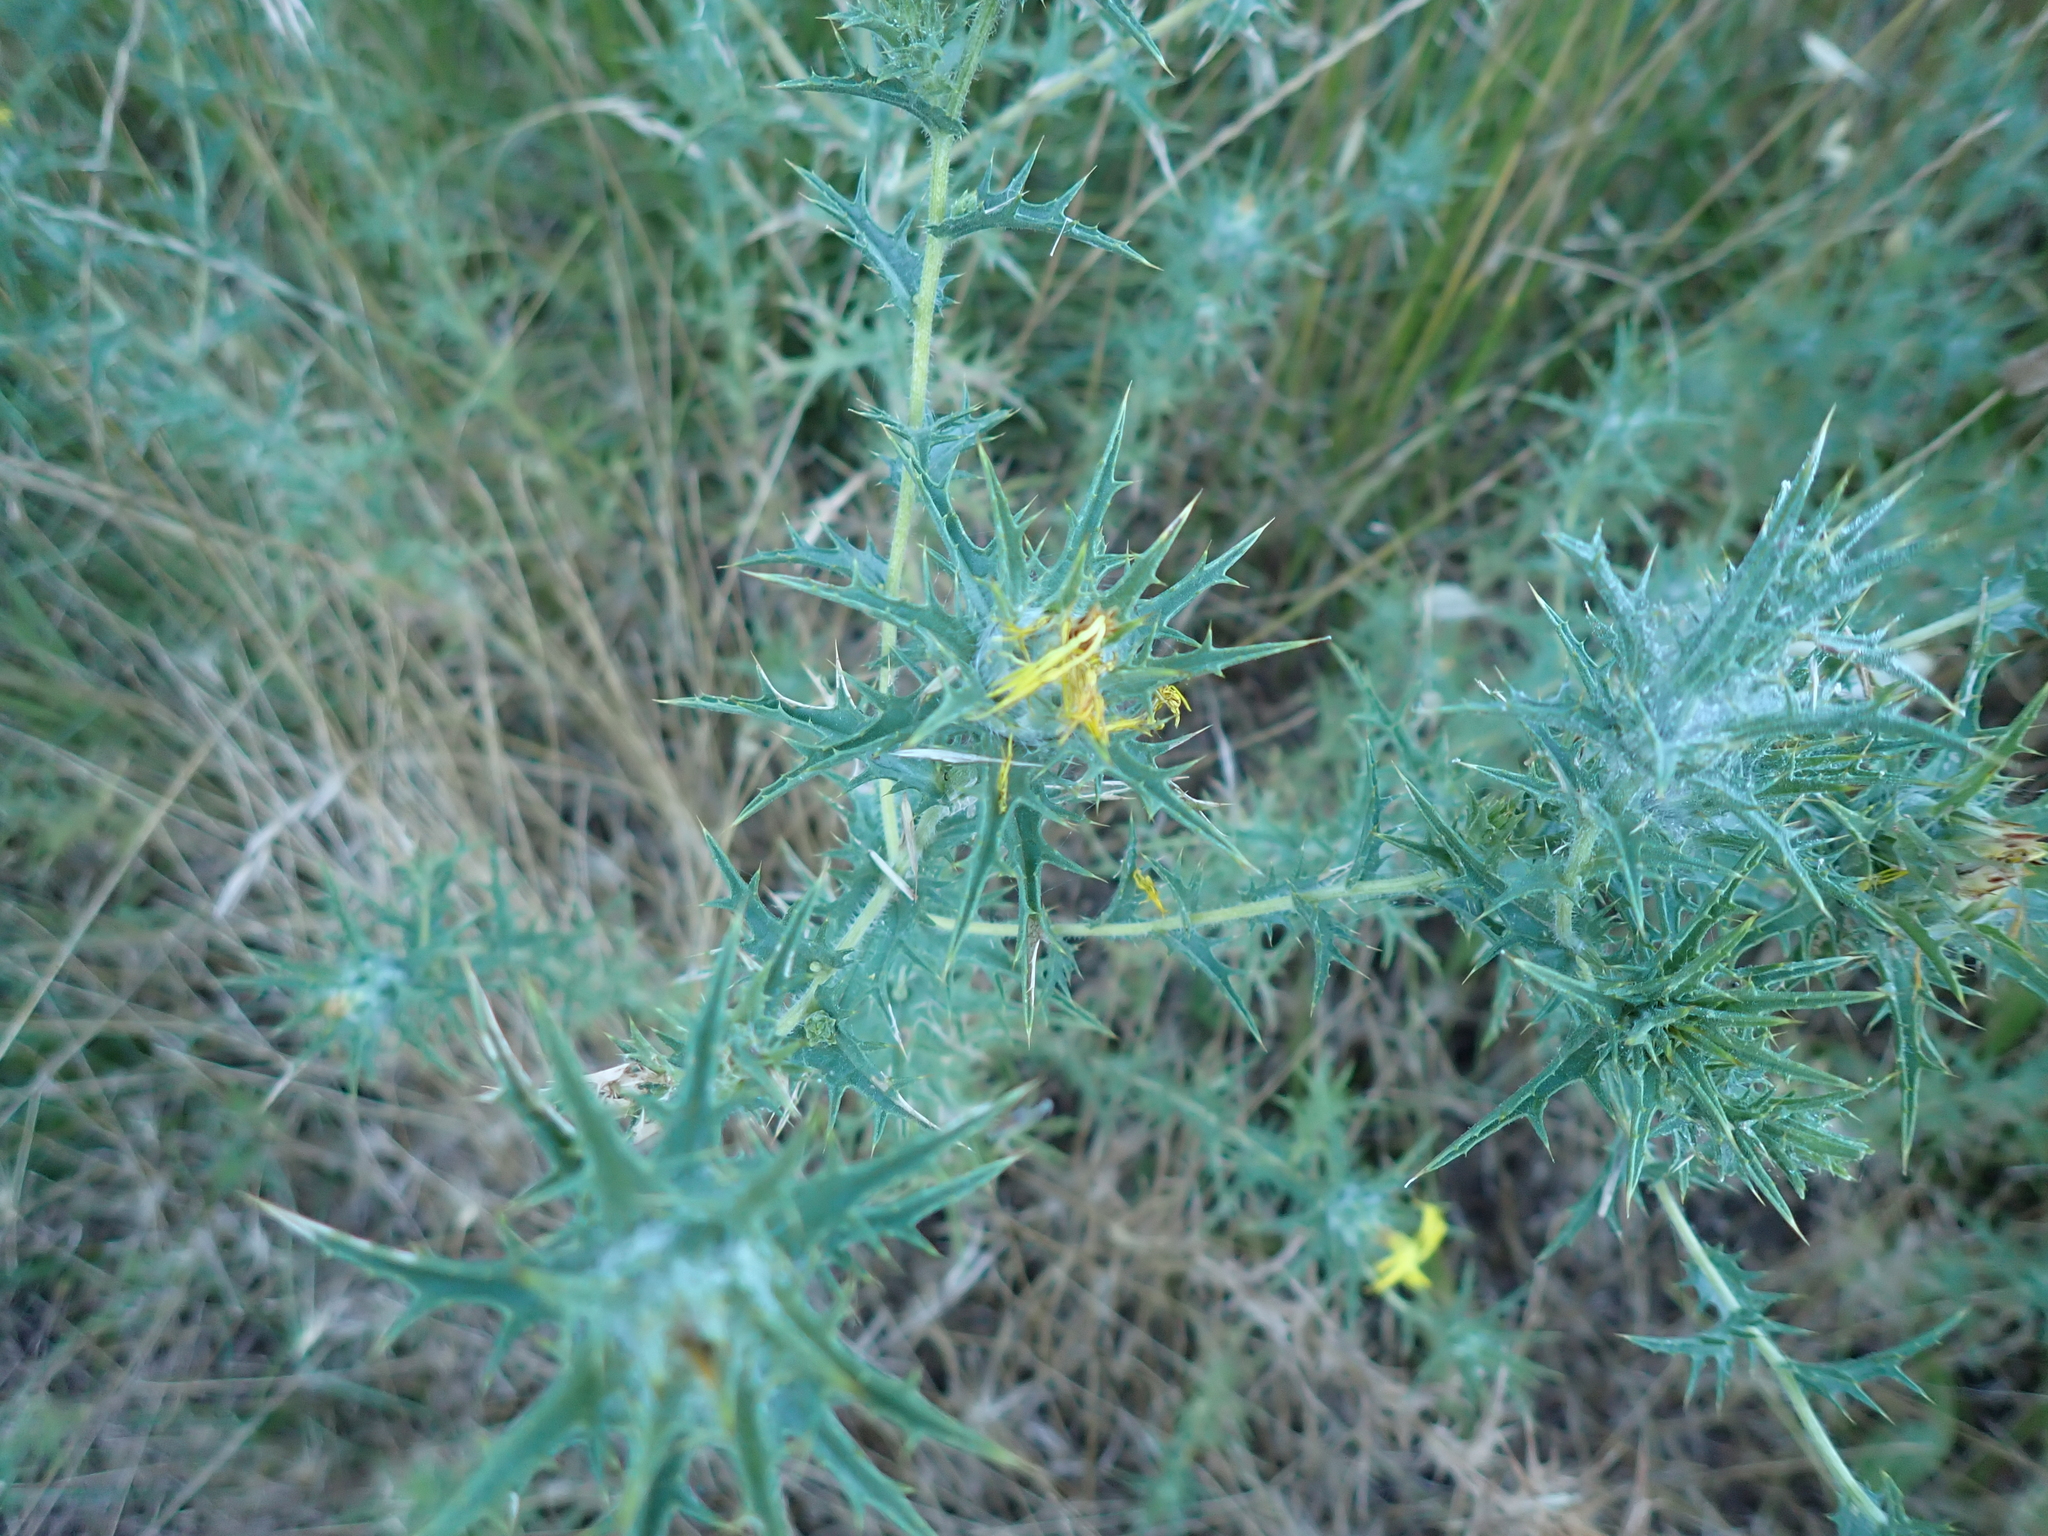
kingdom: Plantae
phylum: Tracheophyta
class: Magnoliopsida
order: Asterales
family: Asteraceae
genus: Carthamus
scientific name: Carthamus lanatus
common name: Downy safflower
